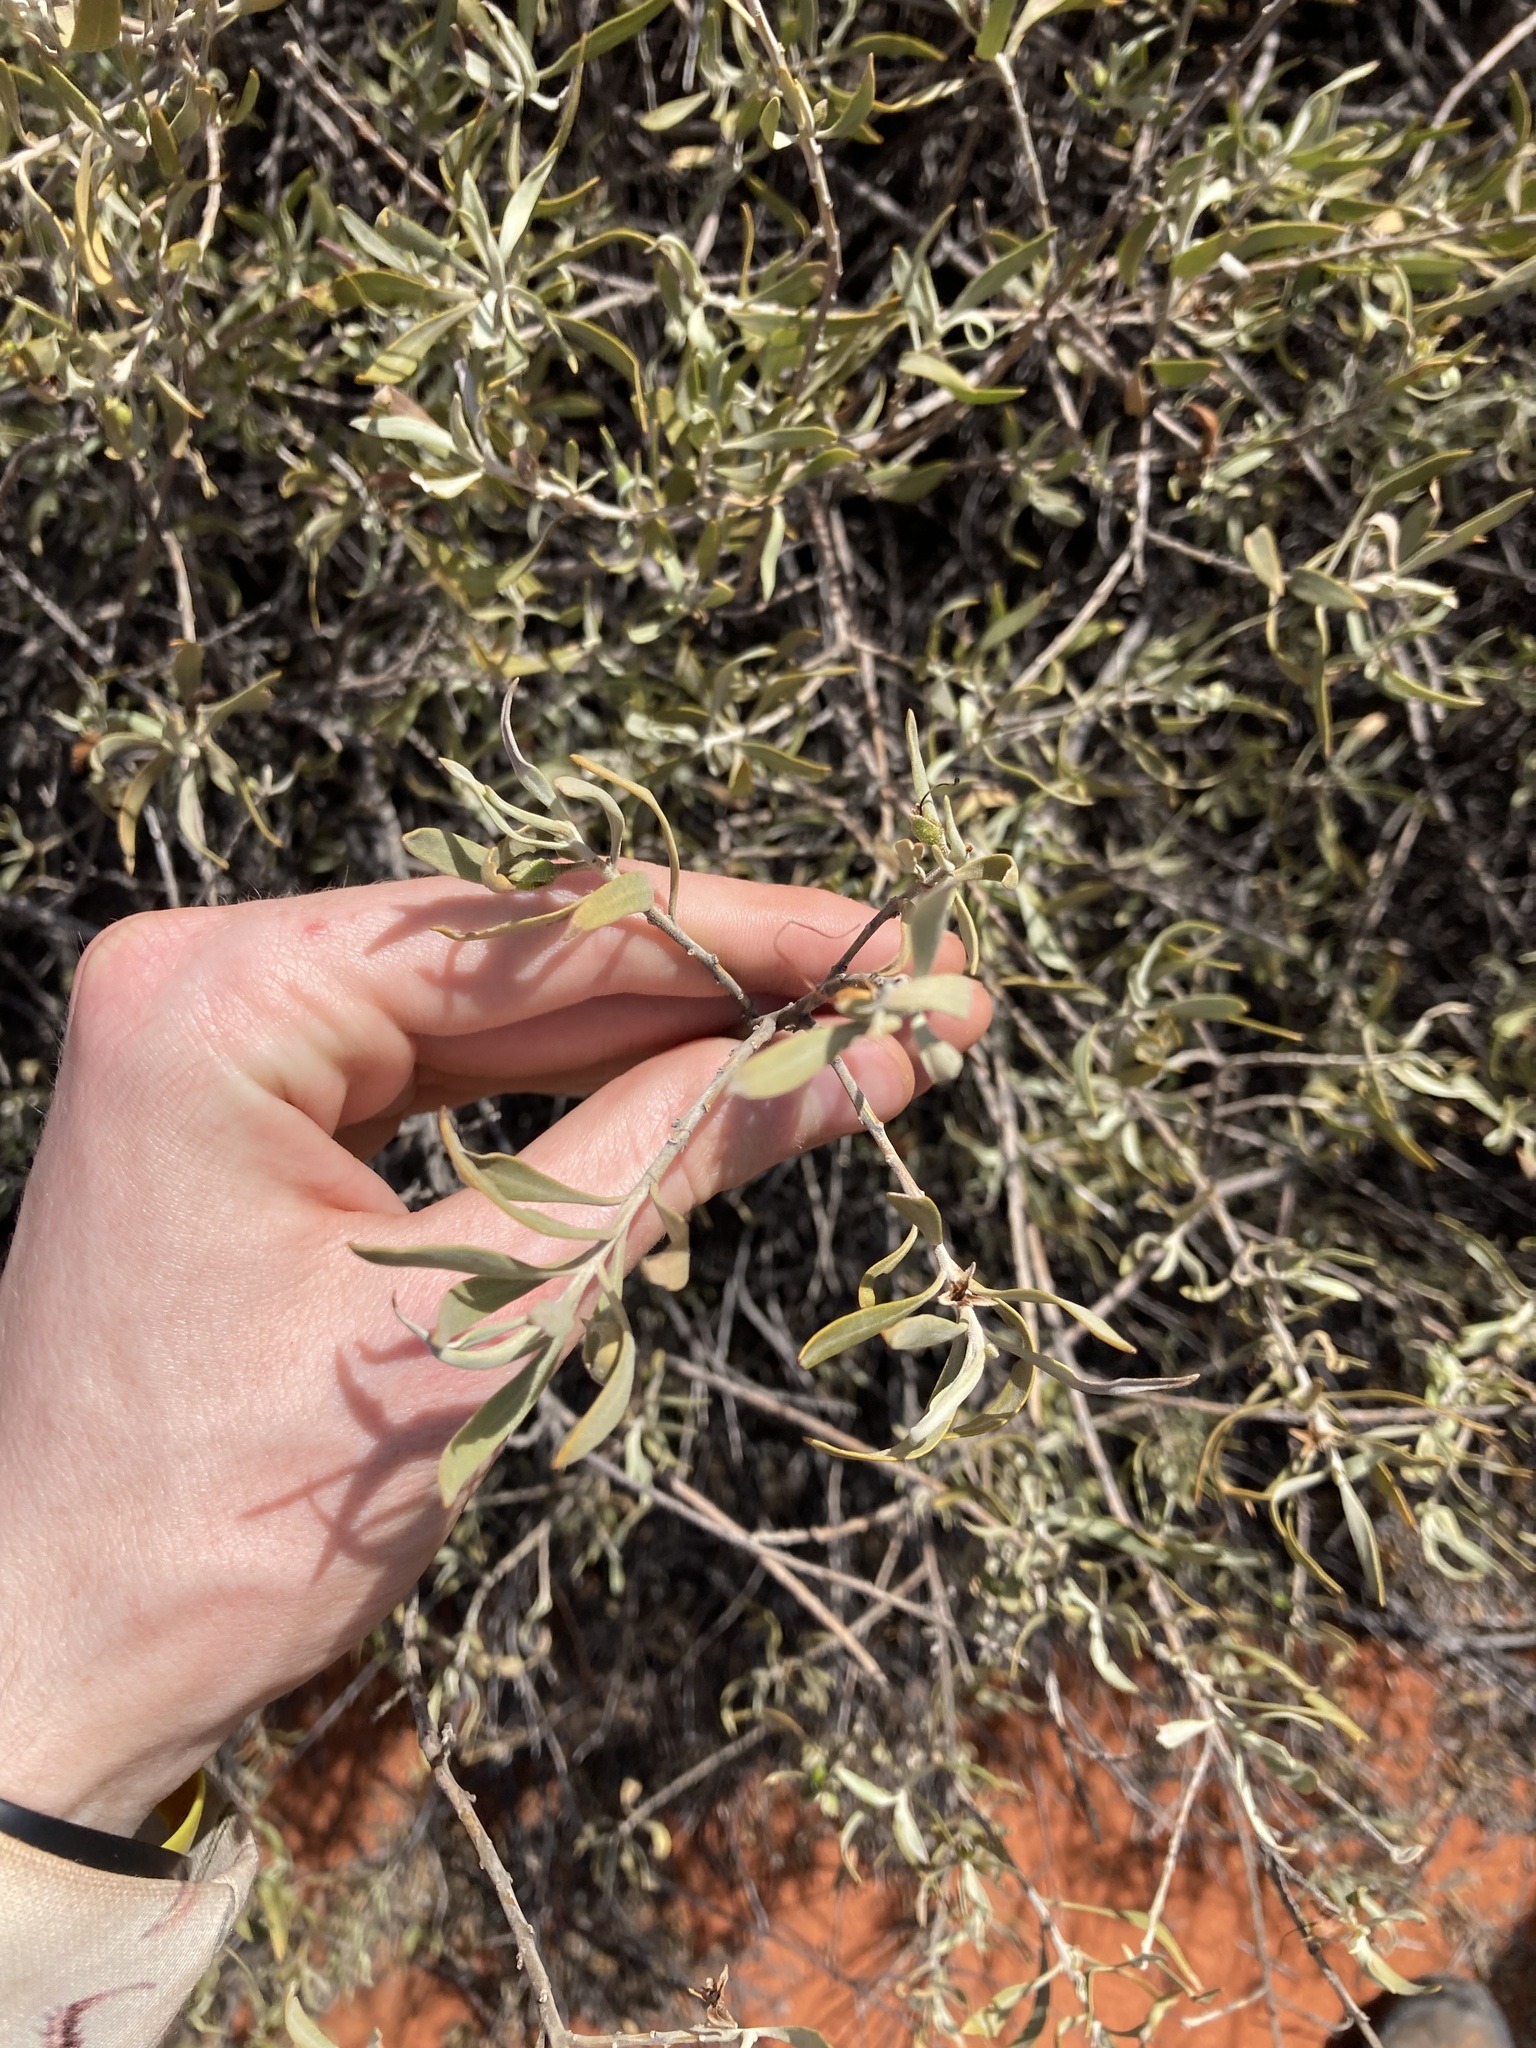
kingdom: Plantae
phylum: Tracheophyta
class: Magnoliopsida
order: Lamiales
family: Scrophulariaceae
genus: Eremophila
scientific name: Eremophila glabra
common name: Black-fuchsia
